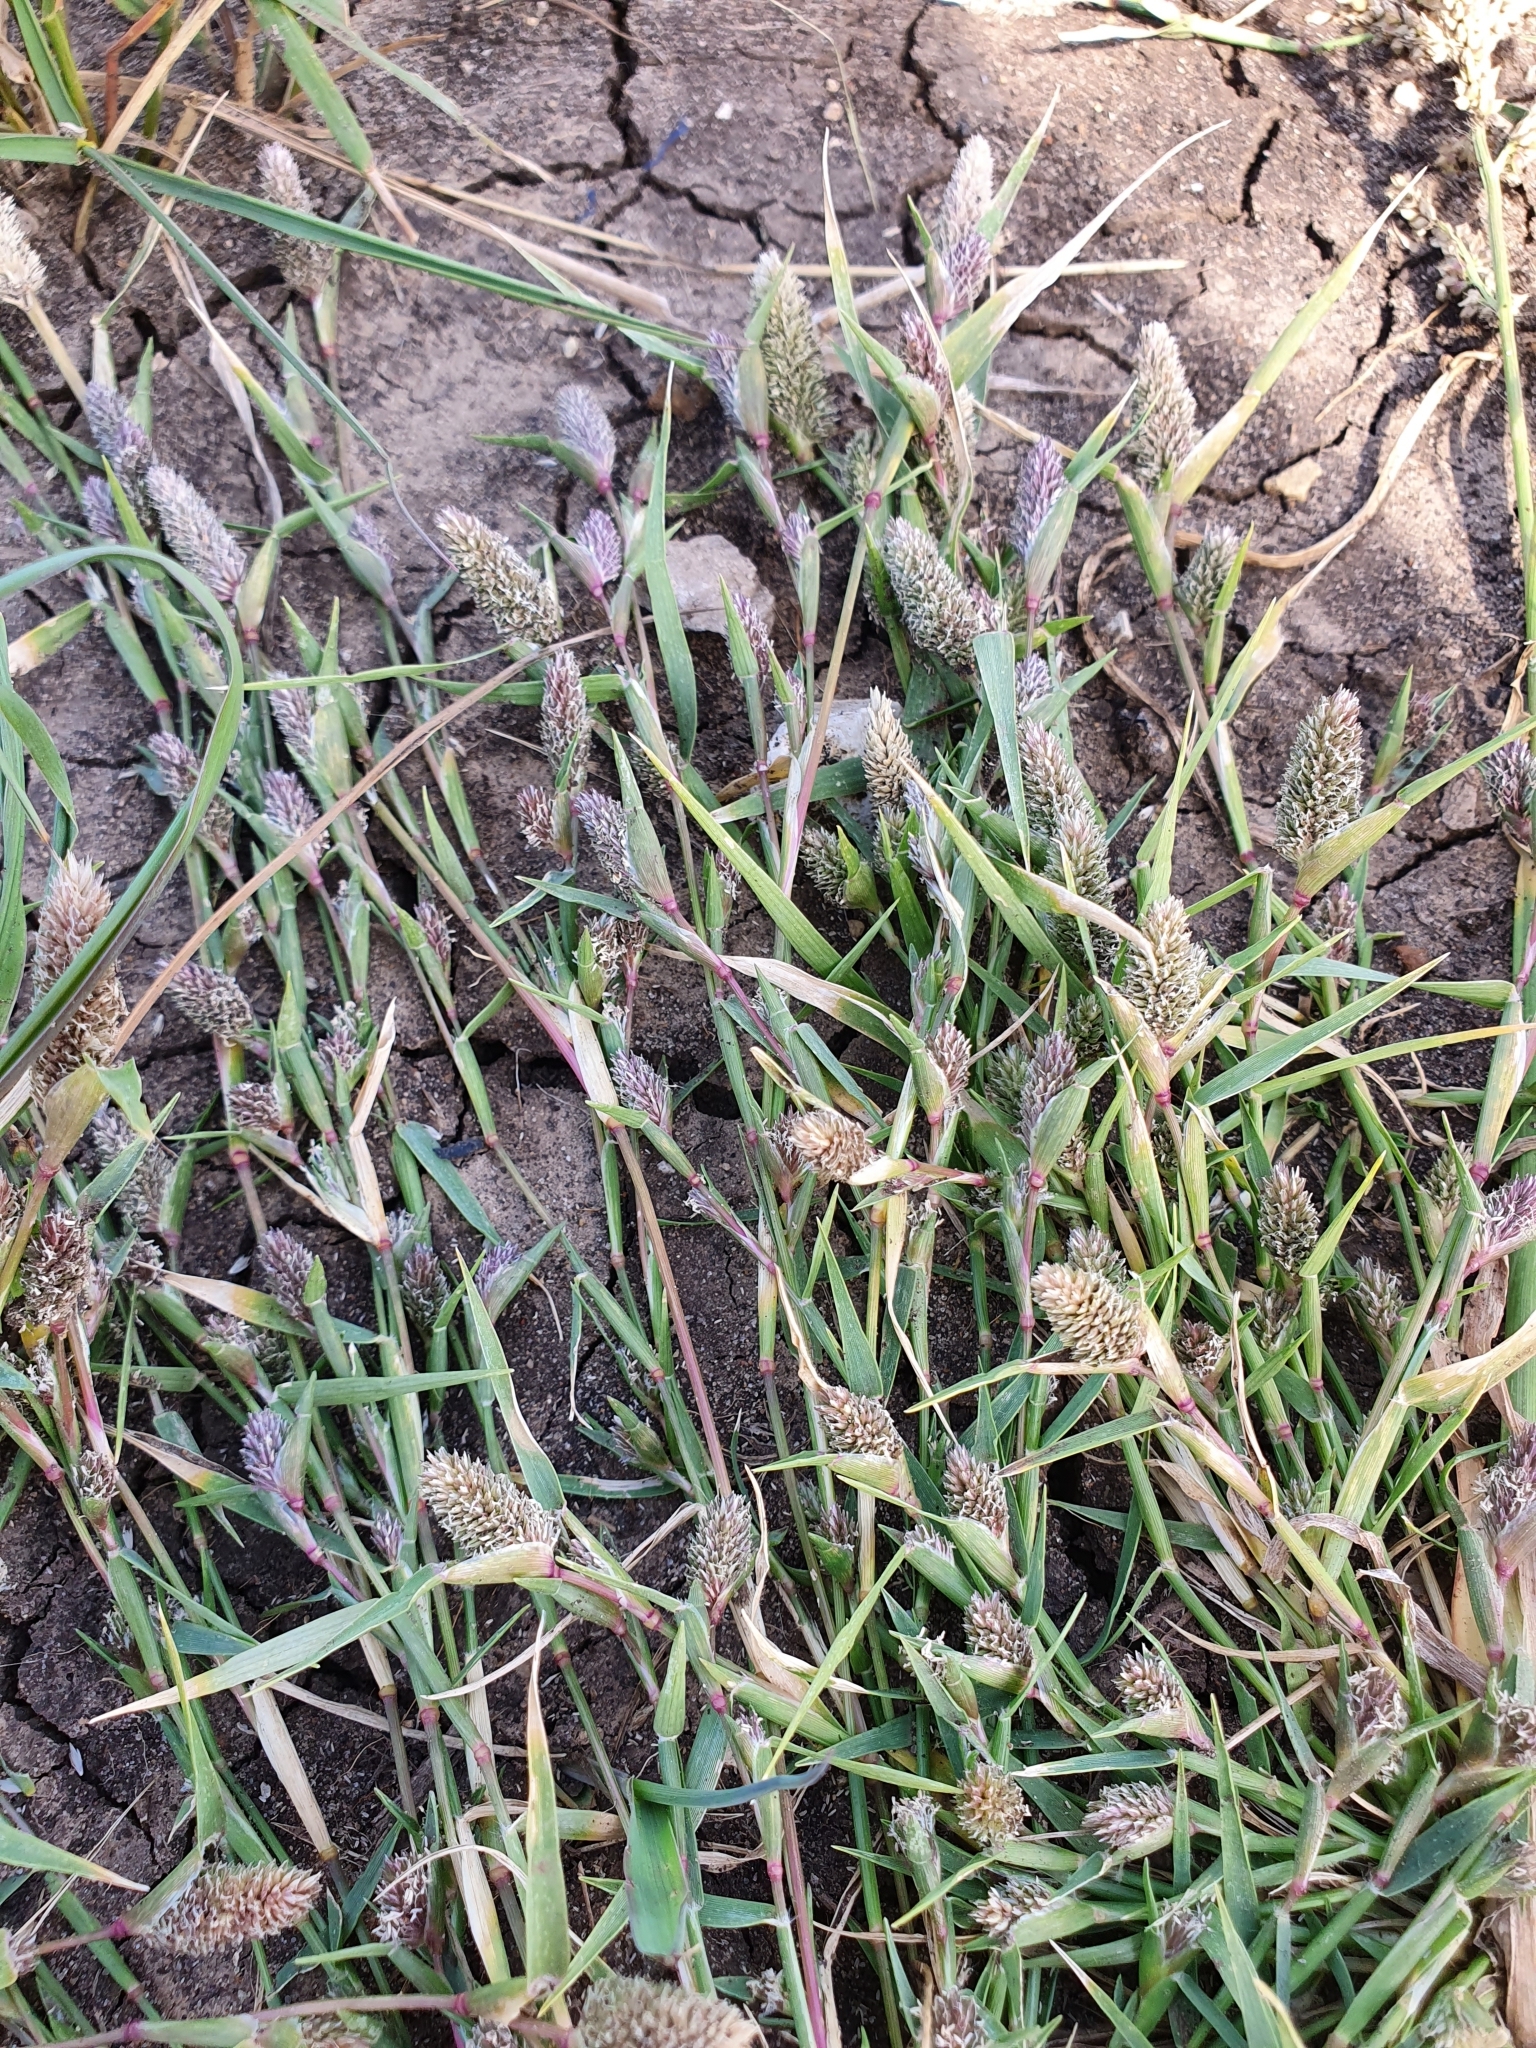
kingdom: Plantae
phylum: Tracheophyta
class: Liliopsida
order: Poales
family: Poaceae
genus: Sporobolus
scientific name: Sporobolus borszczowii
